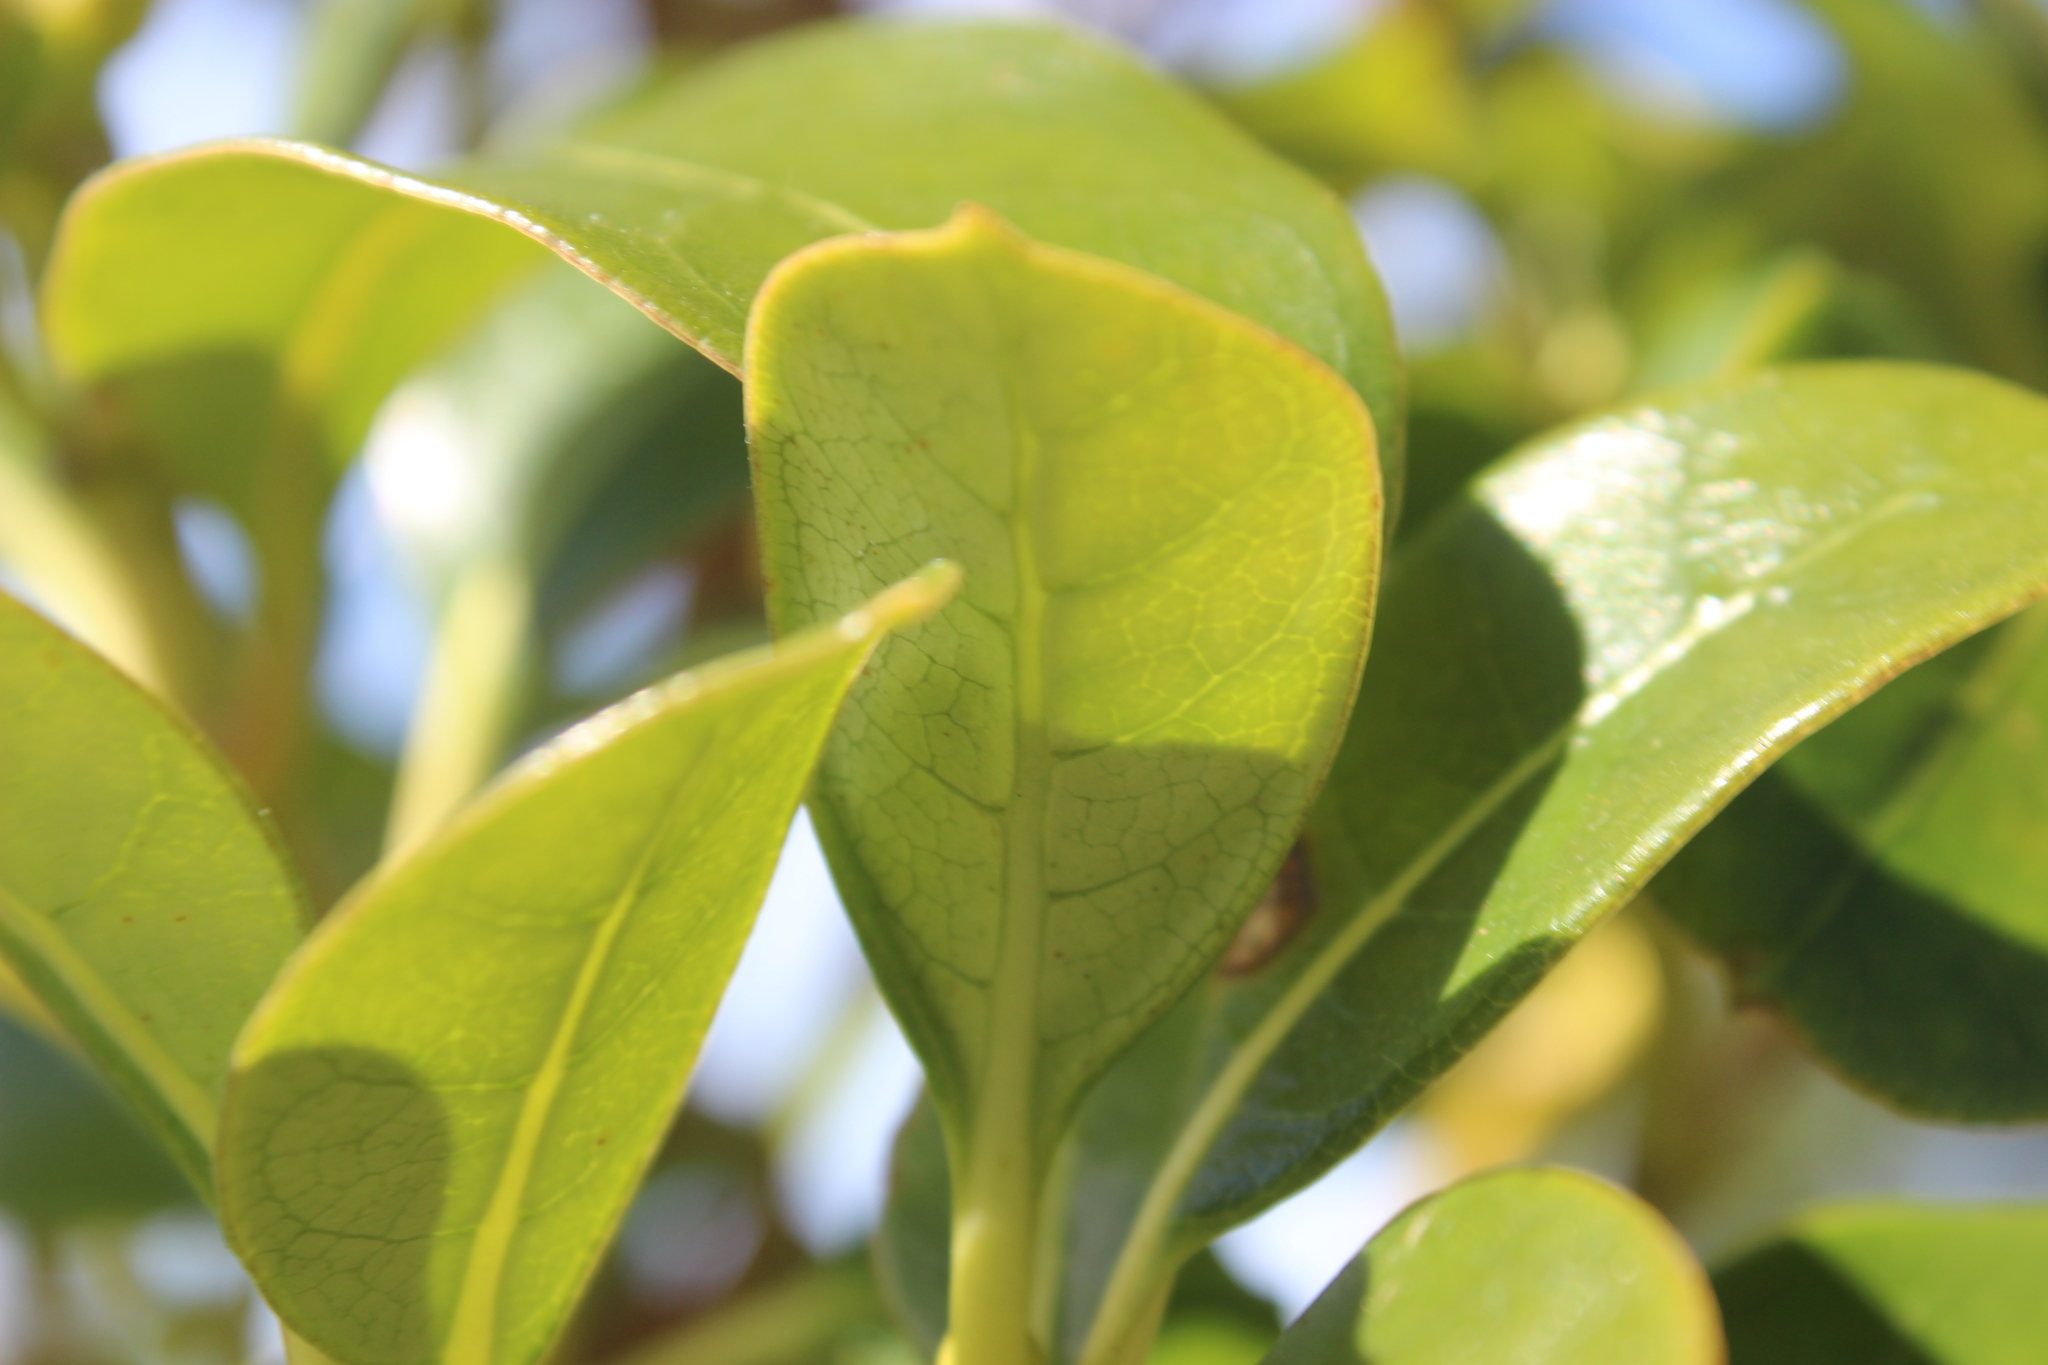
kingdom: Plantae
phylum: Tracheophyta
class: Magnoliopsida
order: Gentianales
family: Rubiaceae
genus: Coprosma
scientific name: Coprosma lucida
